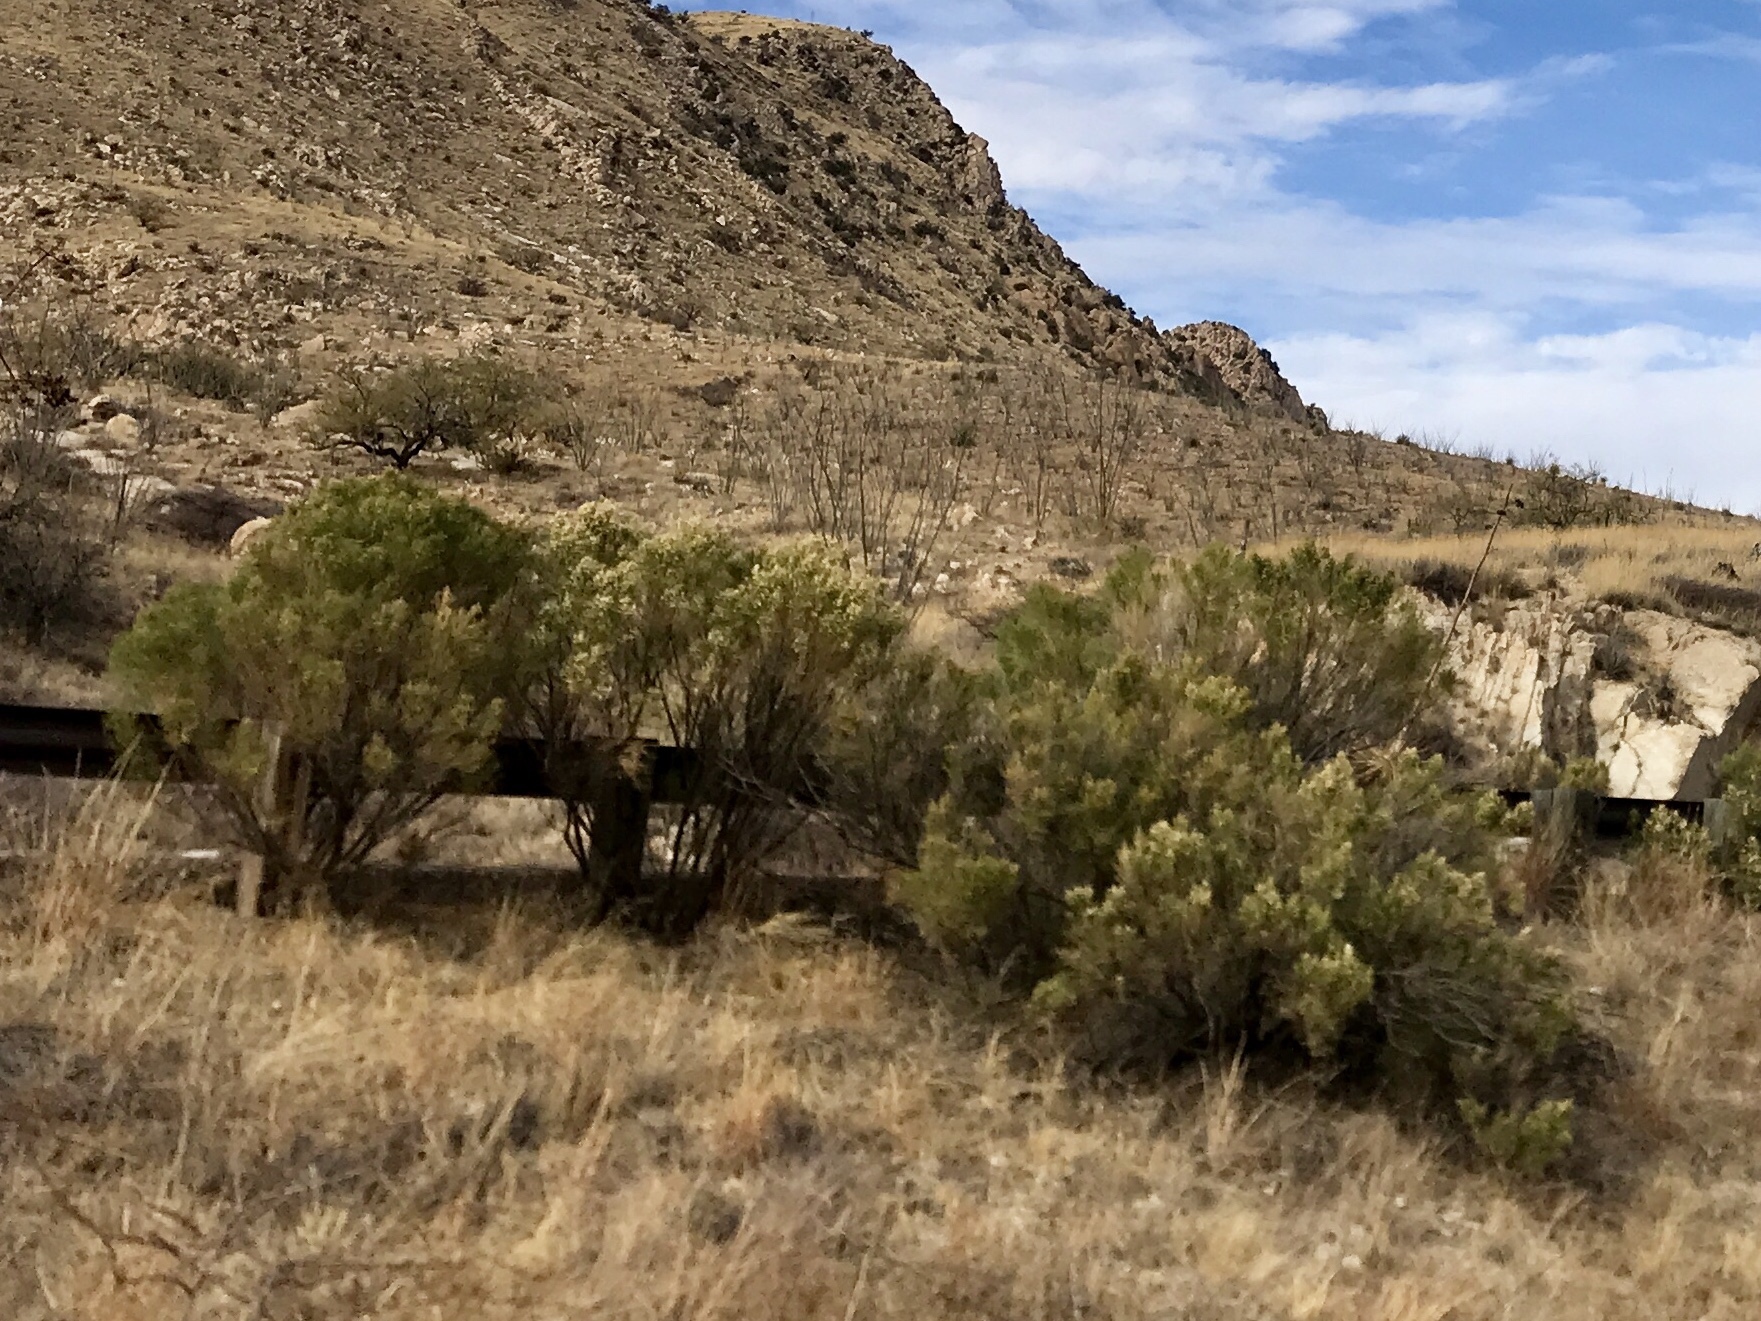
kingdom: Plantae
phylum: Tracheophyta
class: Magnoliopsida
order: Asterales
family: Asteraceae
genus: Baccharis
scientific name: Baccharis sarothroides
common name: Desert-broom
